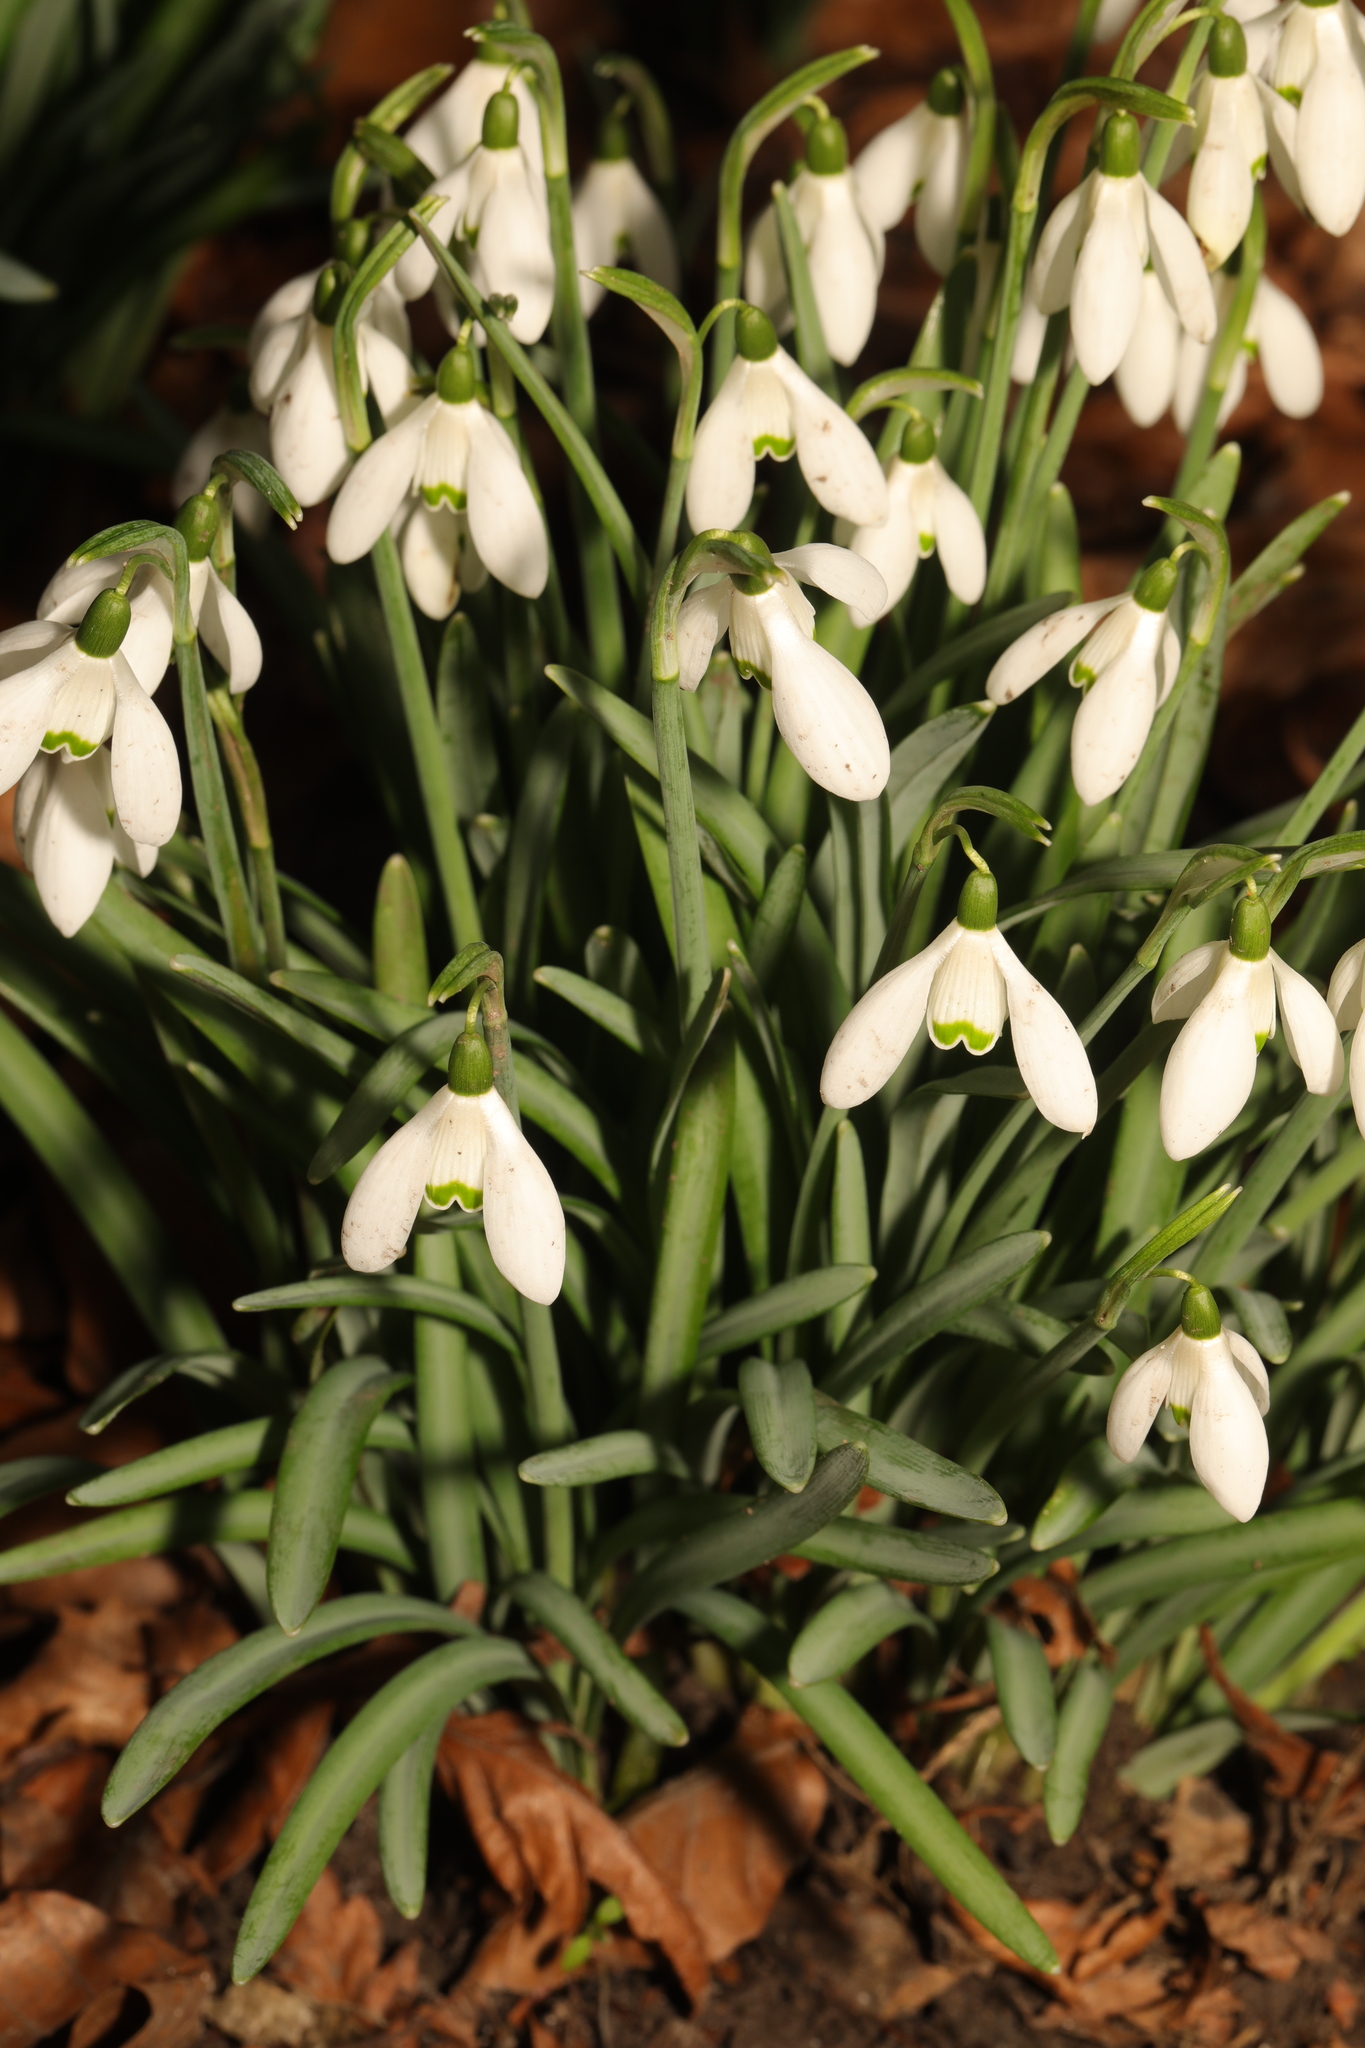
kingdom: Plantae
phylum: Tracheophyta
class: Liliopsida
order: Asparagales
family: Amaryllidaceae
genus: Galanthus
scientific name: Galanthus nivalis
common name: Snowdrop
